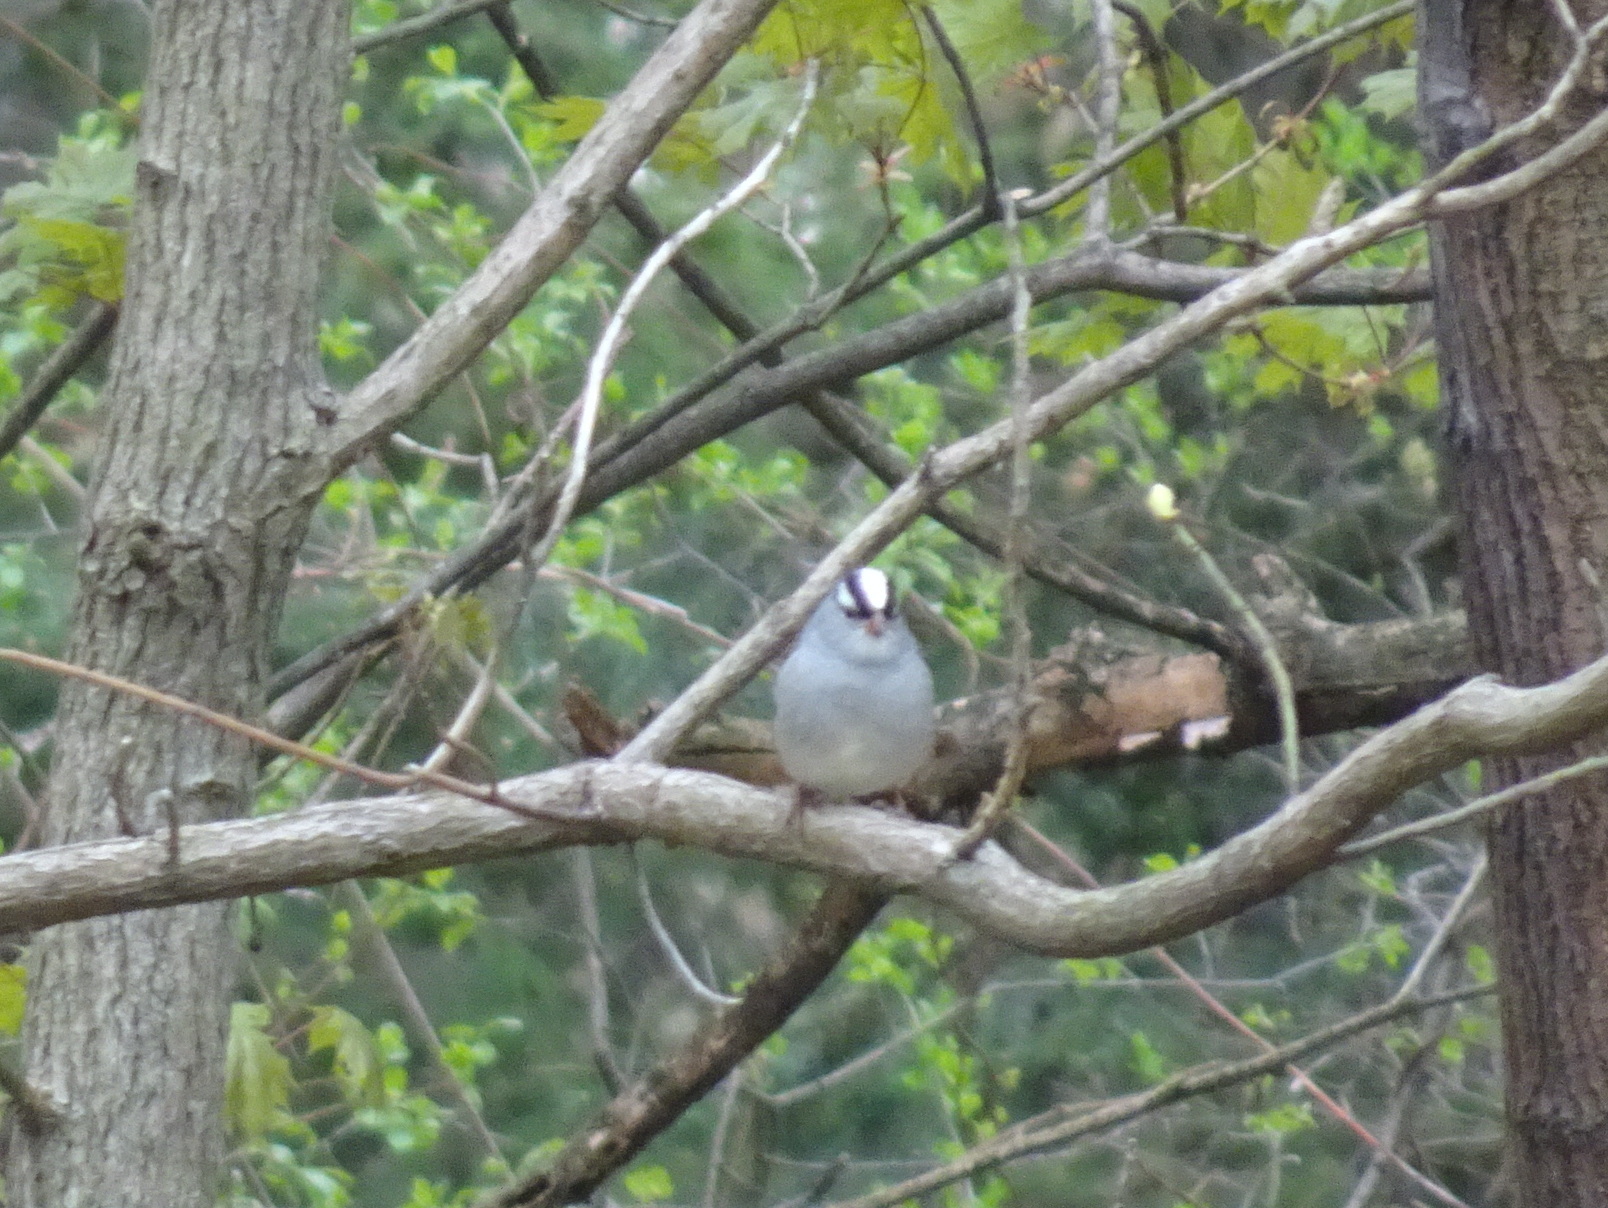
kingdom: Animalia
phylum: Chordata
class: Aves
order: Passeriformes
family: Passerellidae
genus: Zonotrichia
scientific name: Zonotrichia leucophrys
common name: White-crowned sparrow
